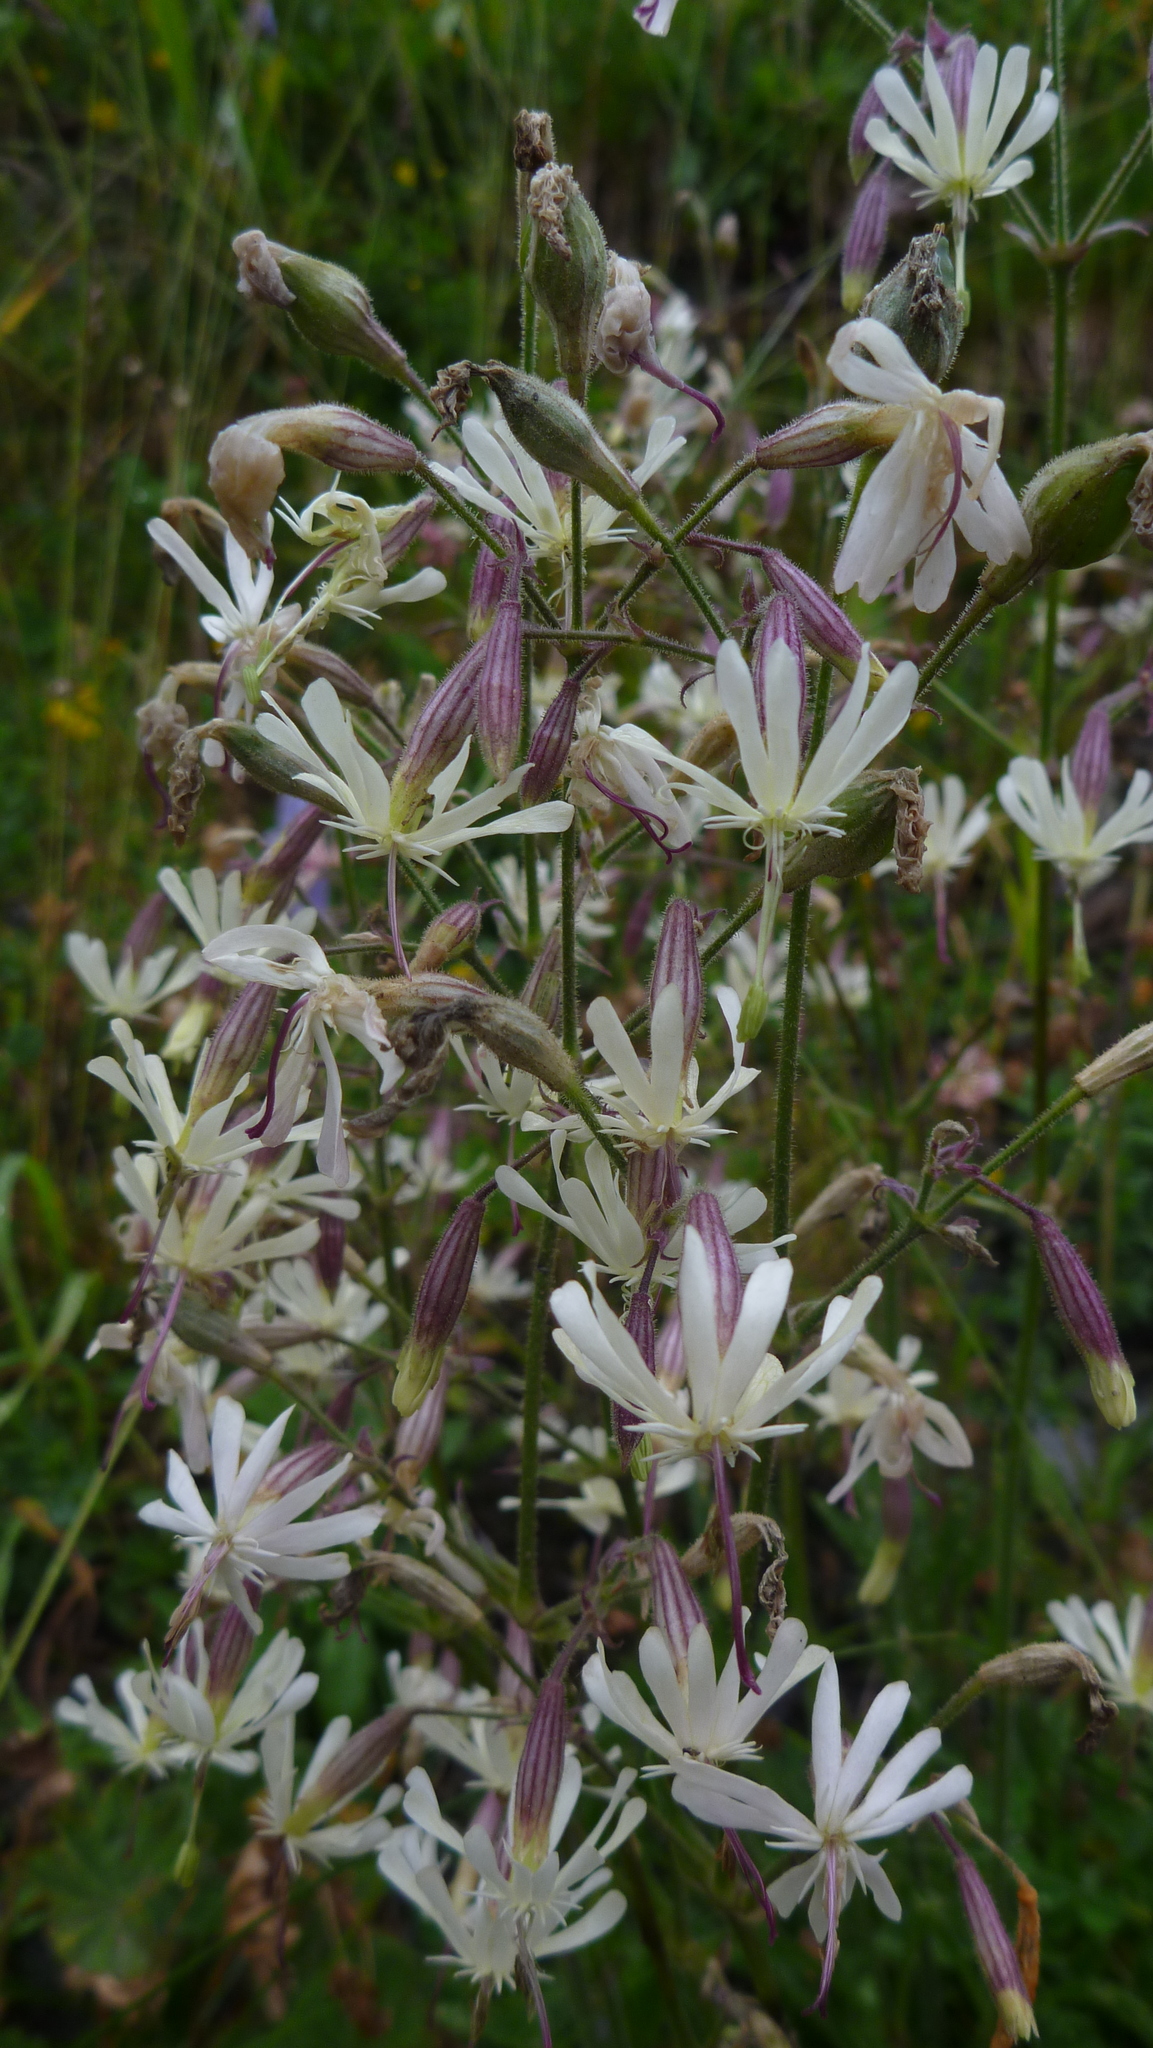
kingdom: Plantae
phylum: Tracheophyta
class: Magnoliopsida
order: Caryophyllales
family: Caryophyllaceae
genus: Silene
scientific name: Silene nutans
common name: Nottingham catchfly
